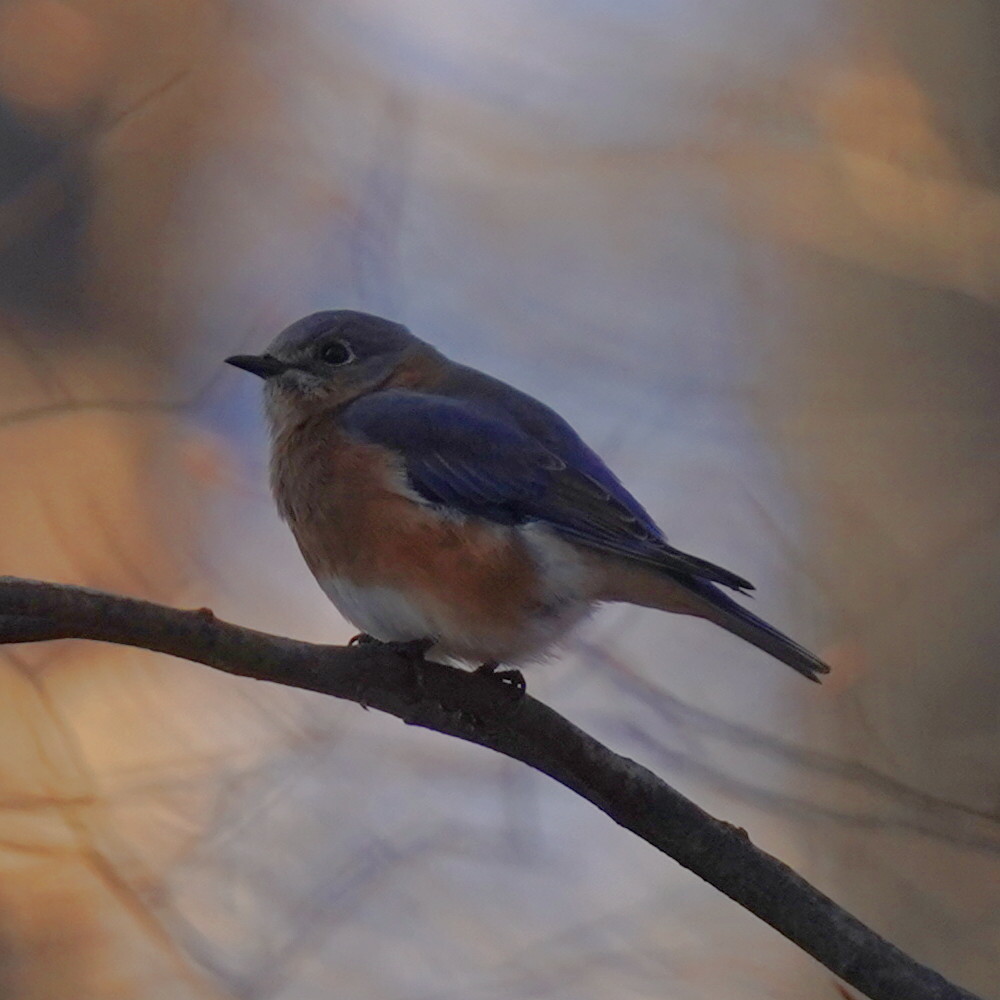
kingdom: Animalia
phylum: Chordata
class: Aves
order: Passeriformes
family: Turdidae
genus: Sialia
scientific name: Sialia sialis
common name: Eastern bluebird
